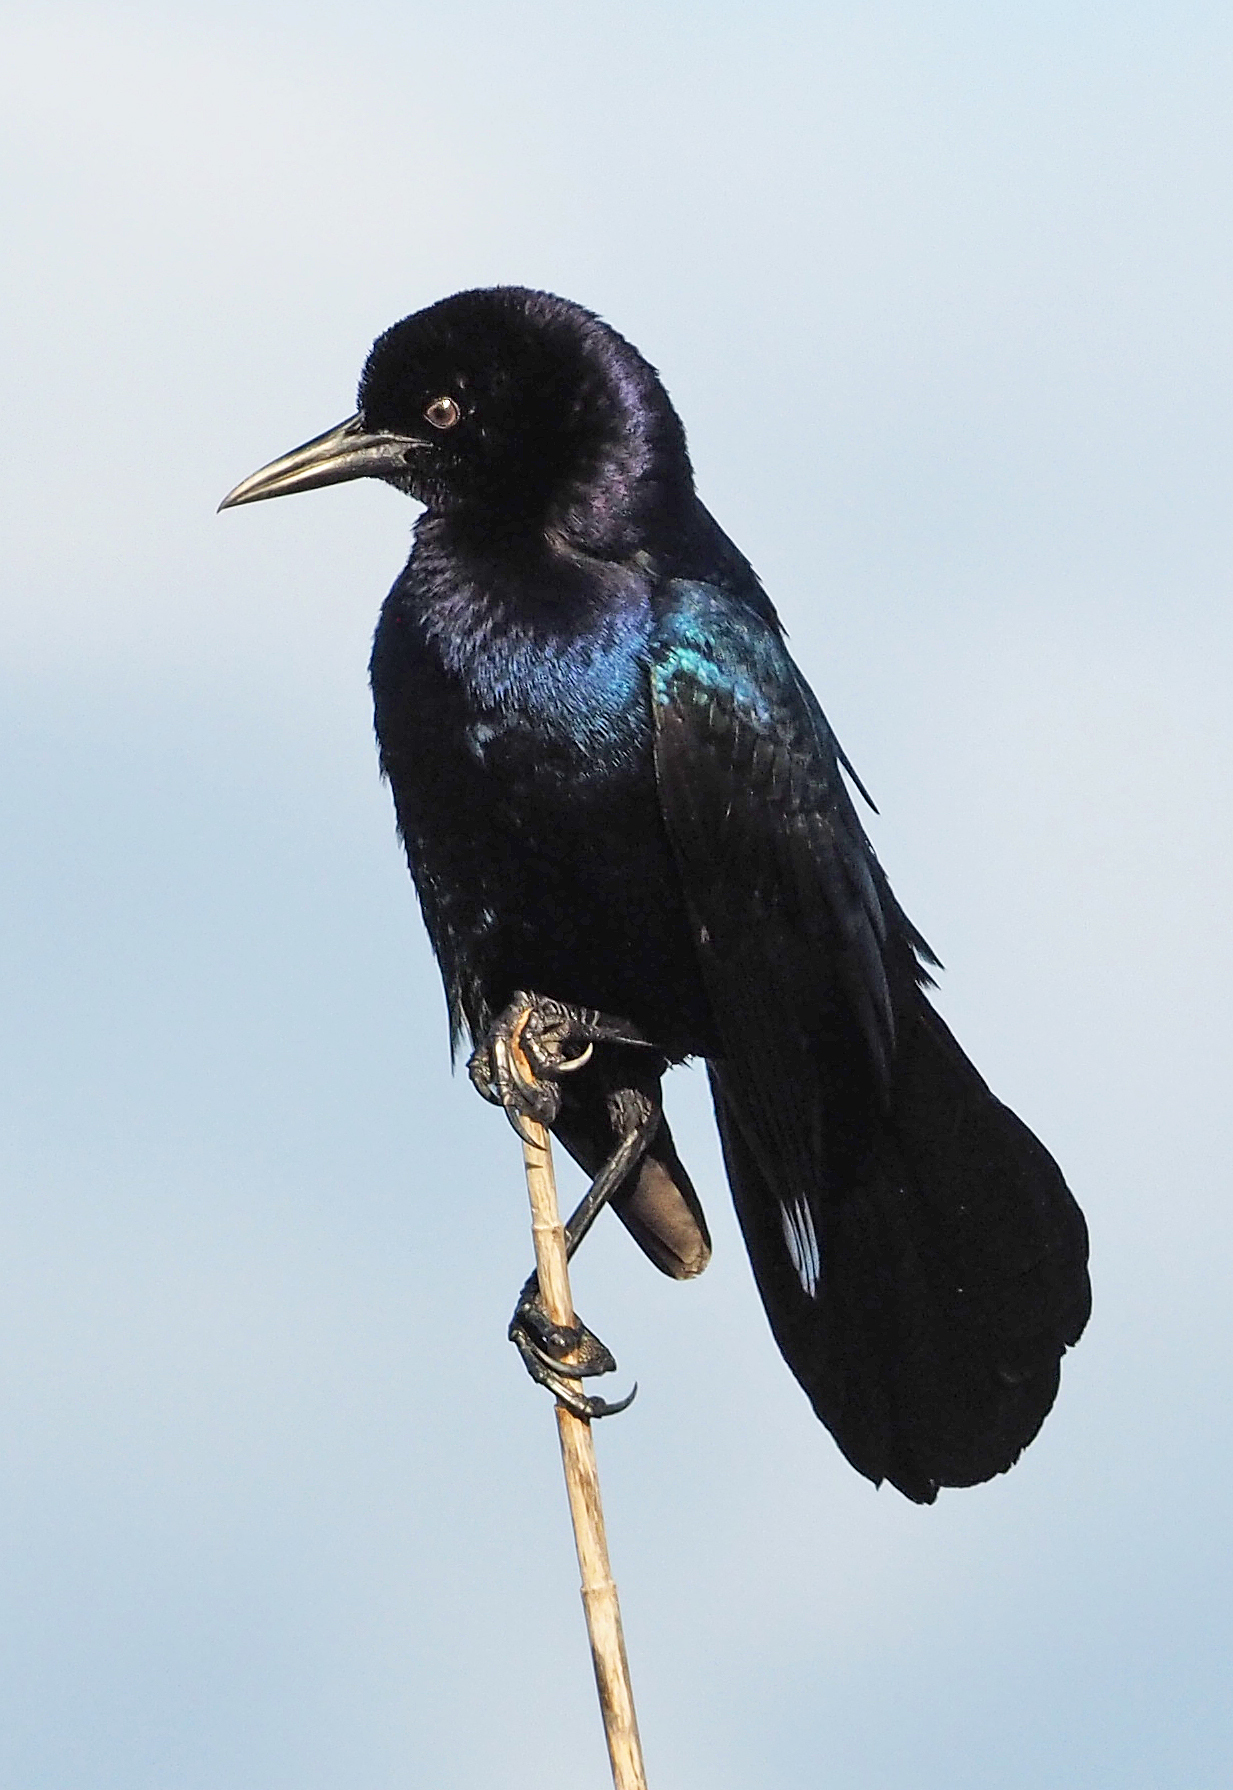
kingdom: Animalia
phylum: Chordata
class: Aves
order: Passeriformes
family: Icteridae
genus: Quiscalus
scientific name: Quiscalus major
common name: Boat-tailed grackle
